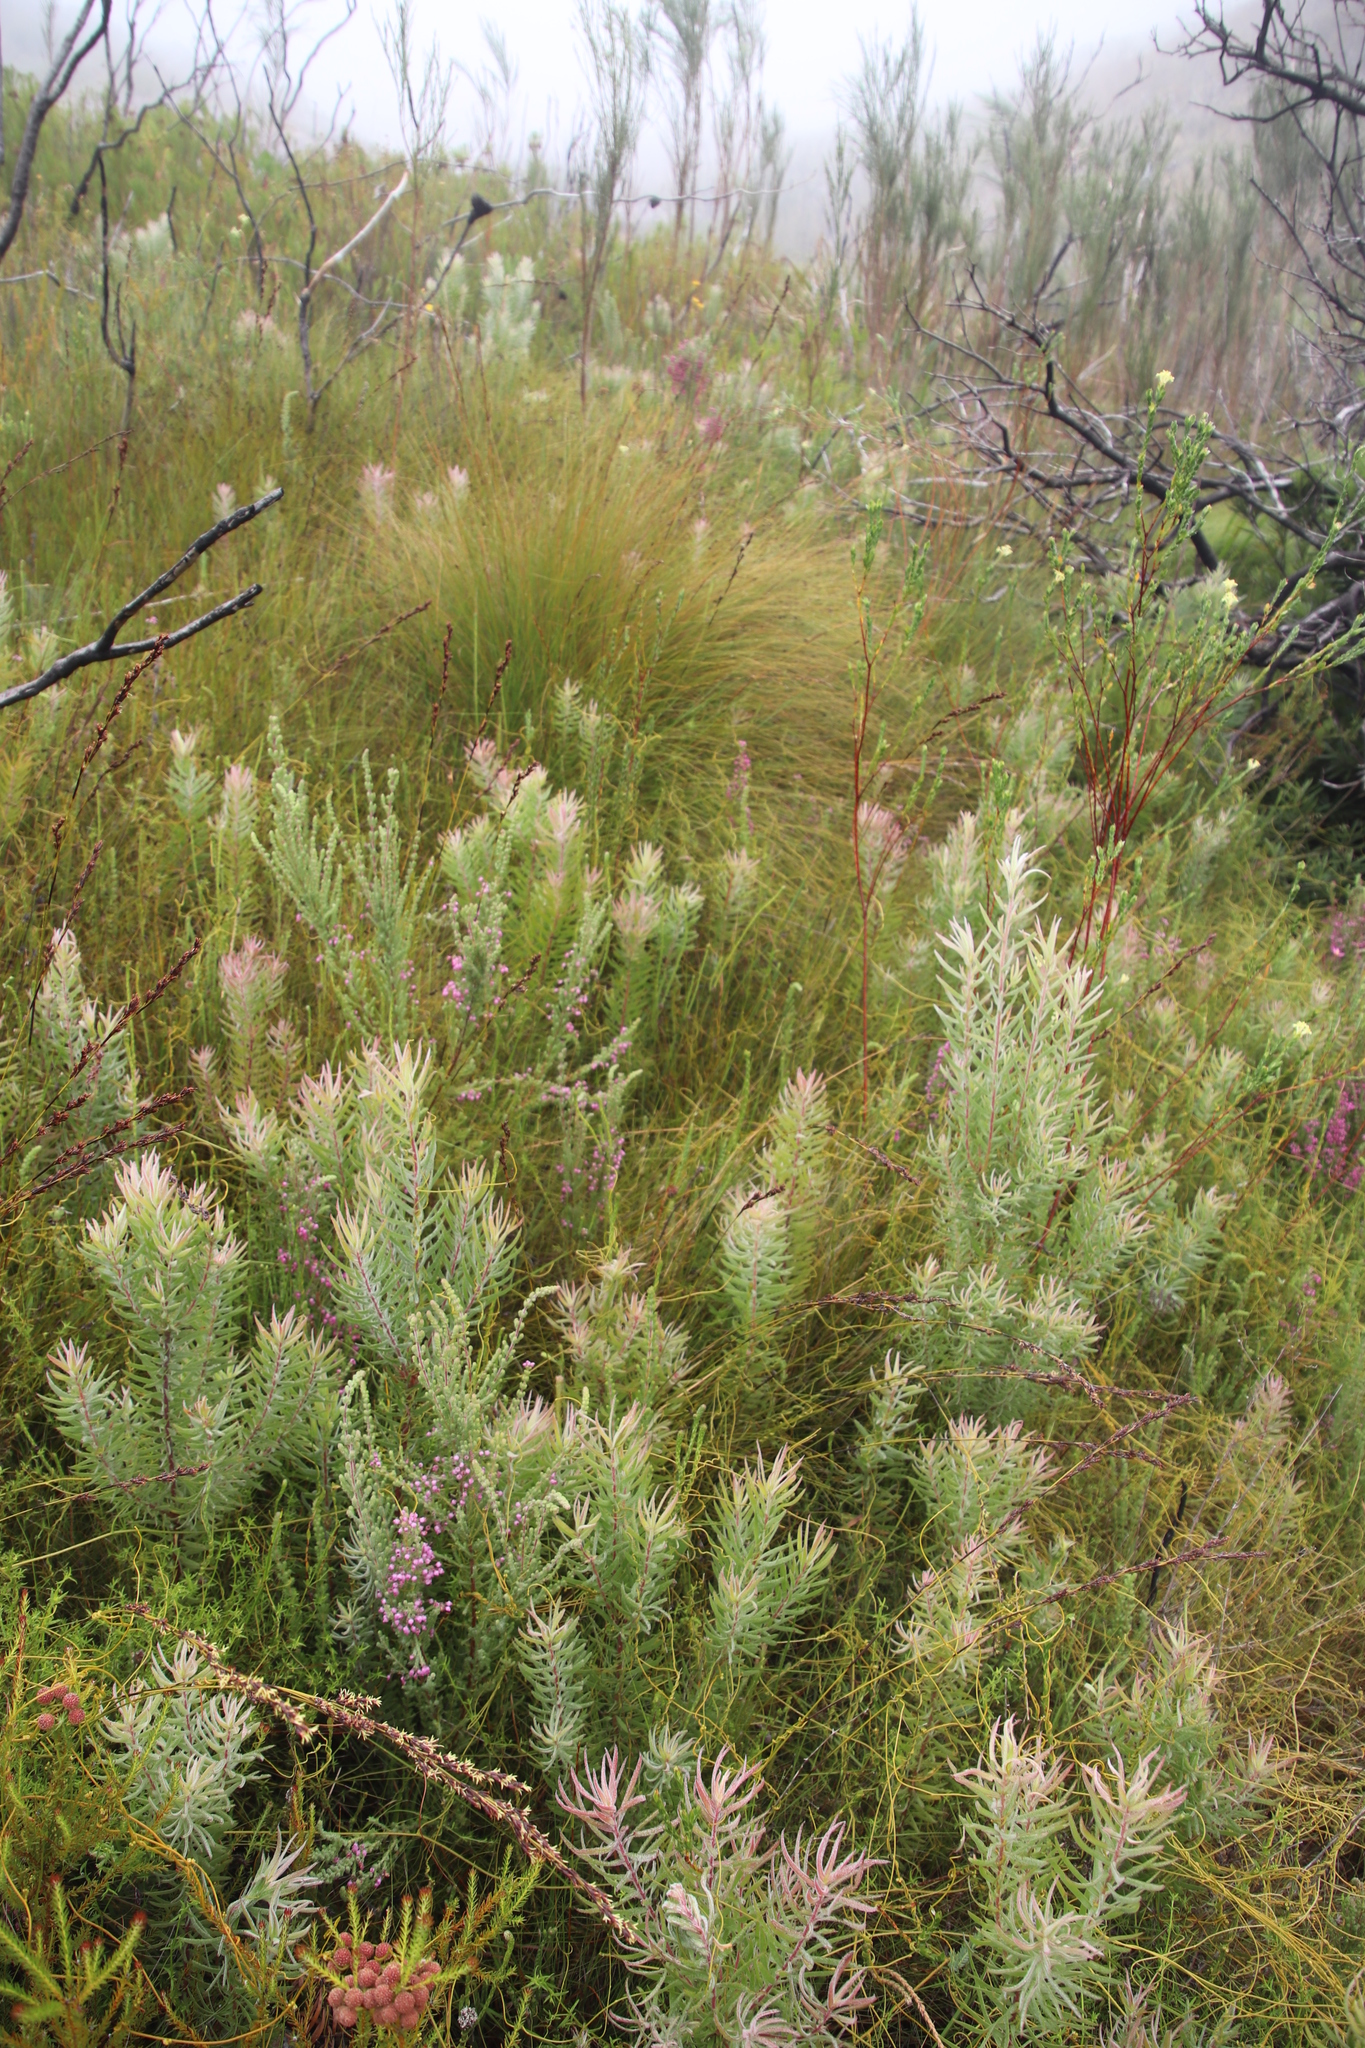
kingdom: Plantae
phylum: Tracheophyta
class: Magnoliopsida
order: Proteales
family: Proteaceae
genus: Leucadendron
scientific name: Leucadendron salicifolium
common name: Common stream conebush
